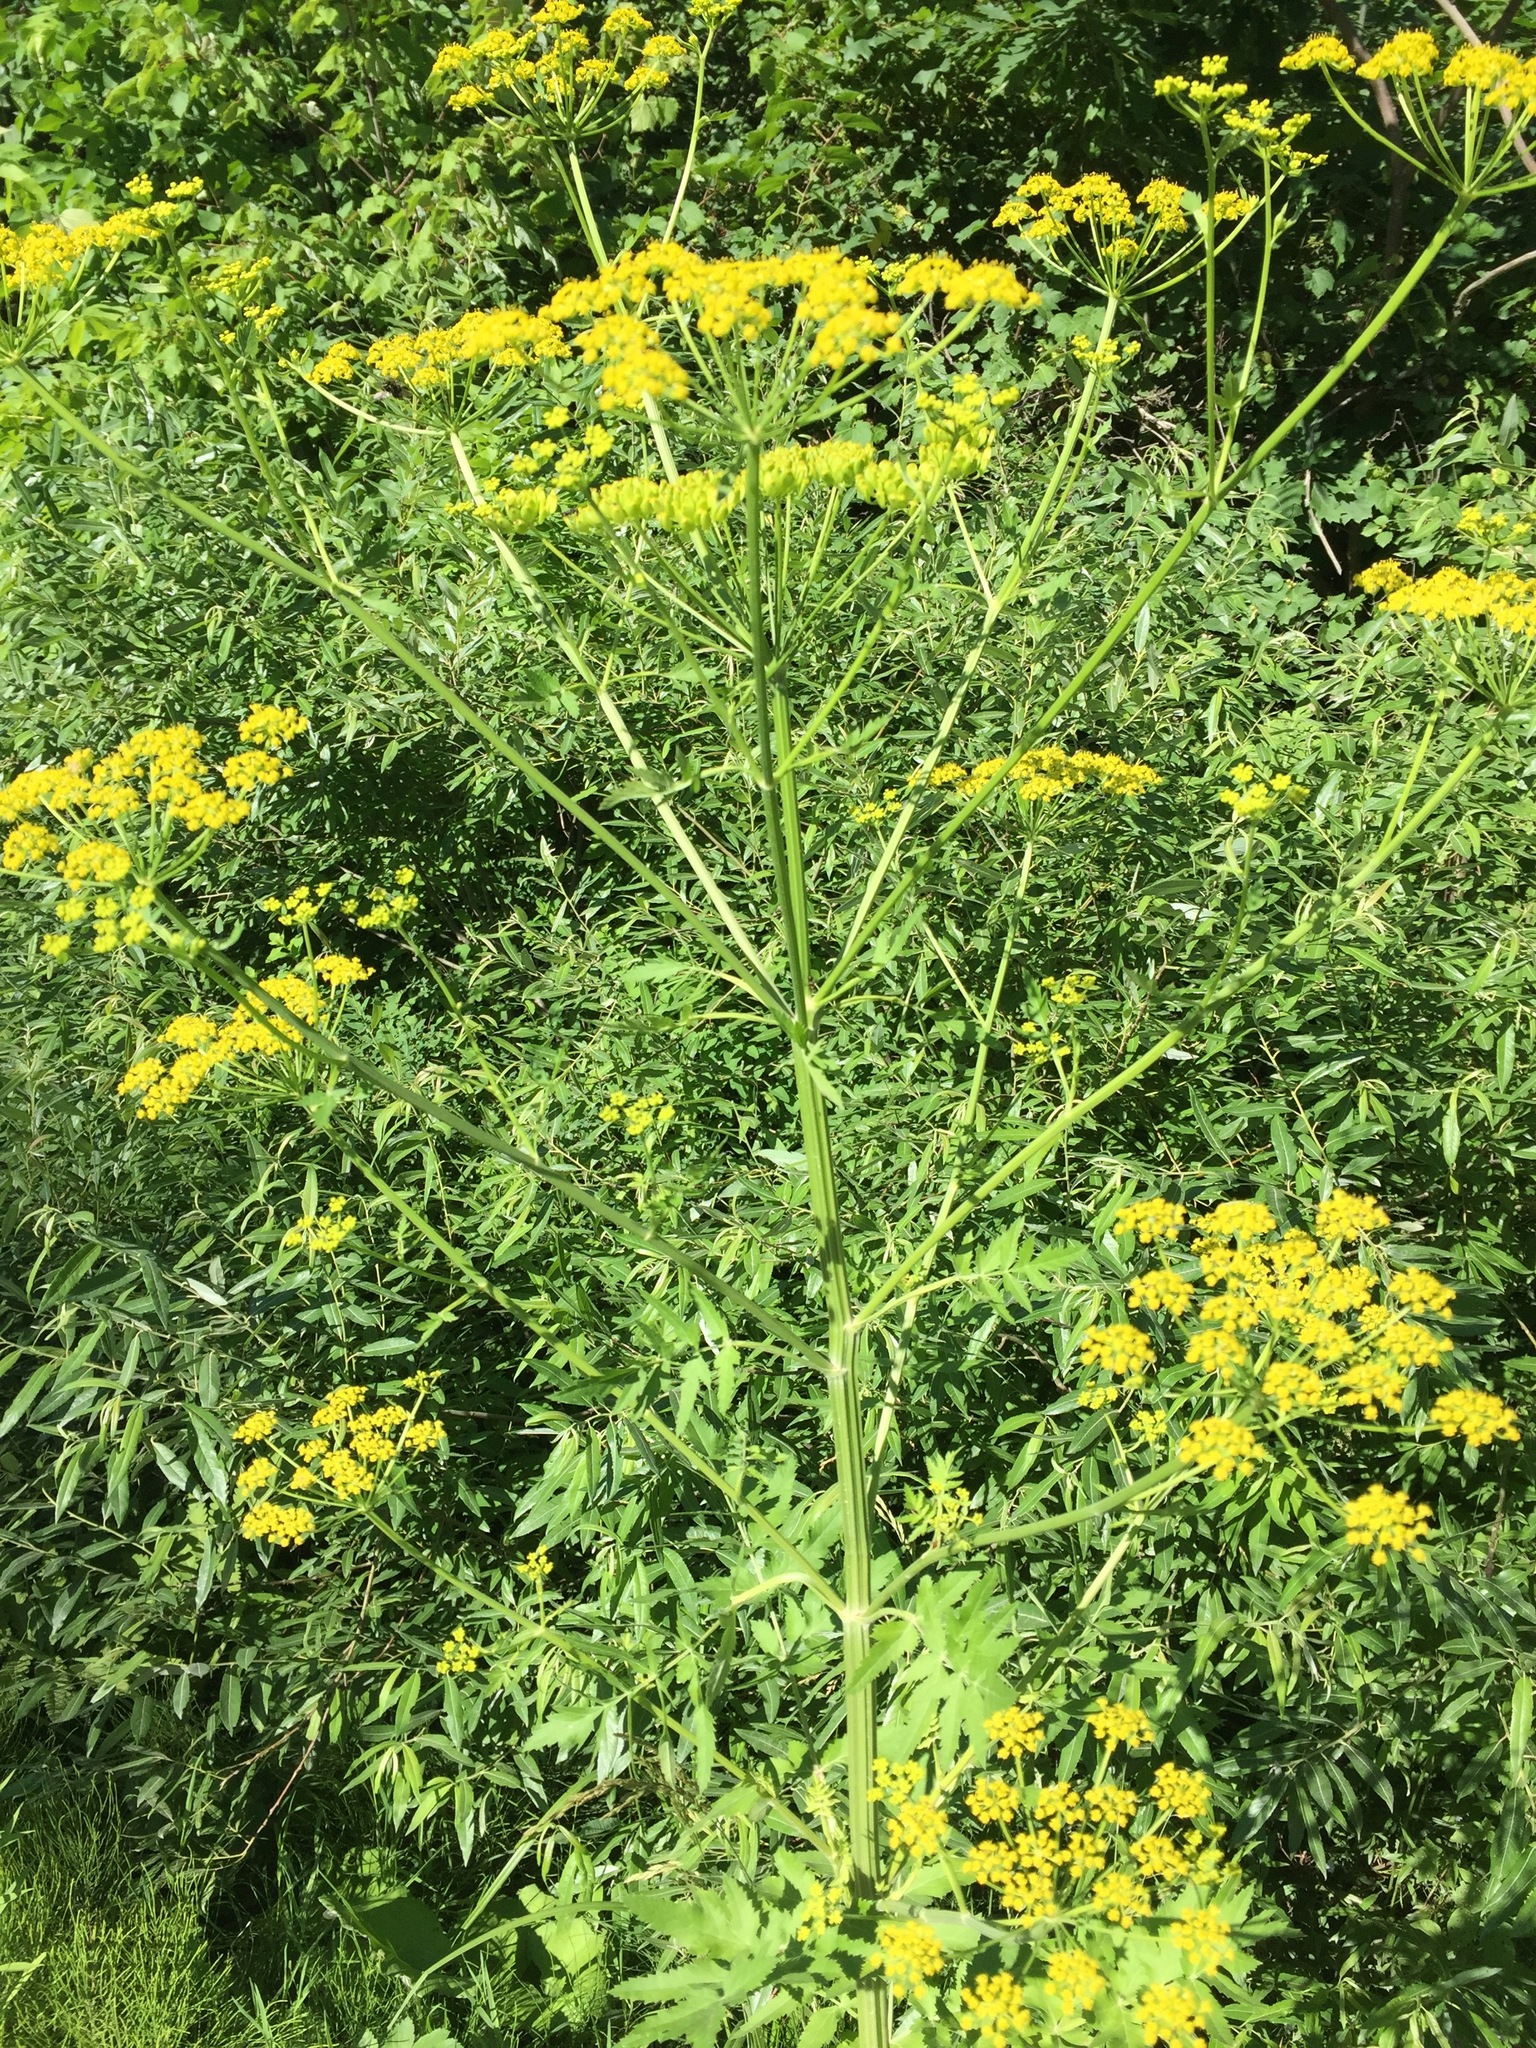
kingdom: Plantae
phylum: Tracheophyta
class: Magnoliopsida
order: Apiales
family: Apiaceae
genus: Pastinaca
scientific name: Pastinaca sativa
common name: Wild parsnip
